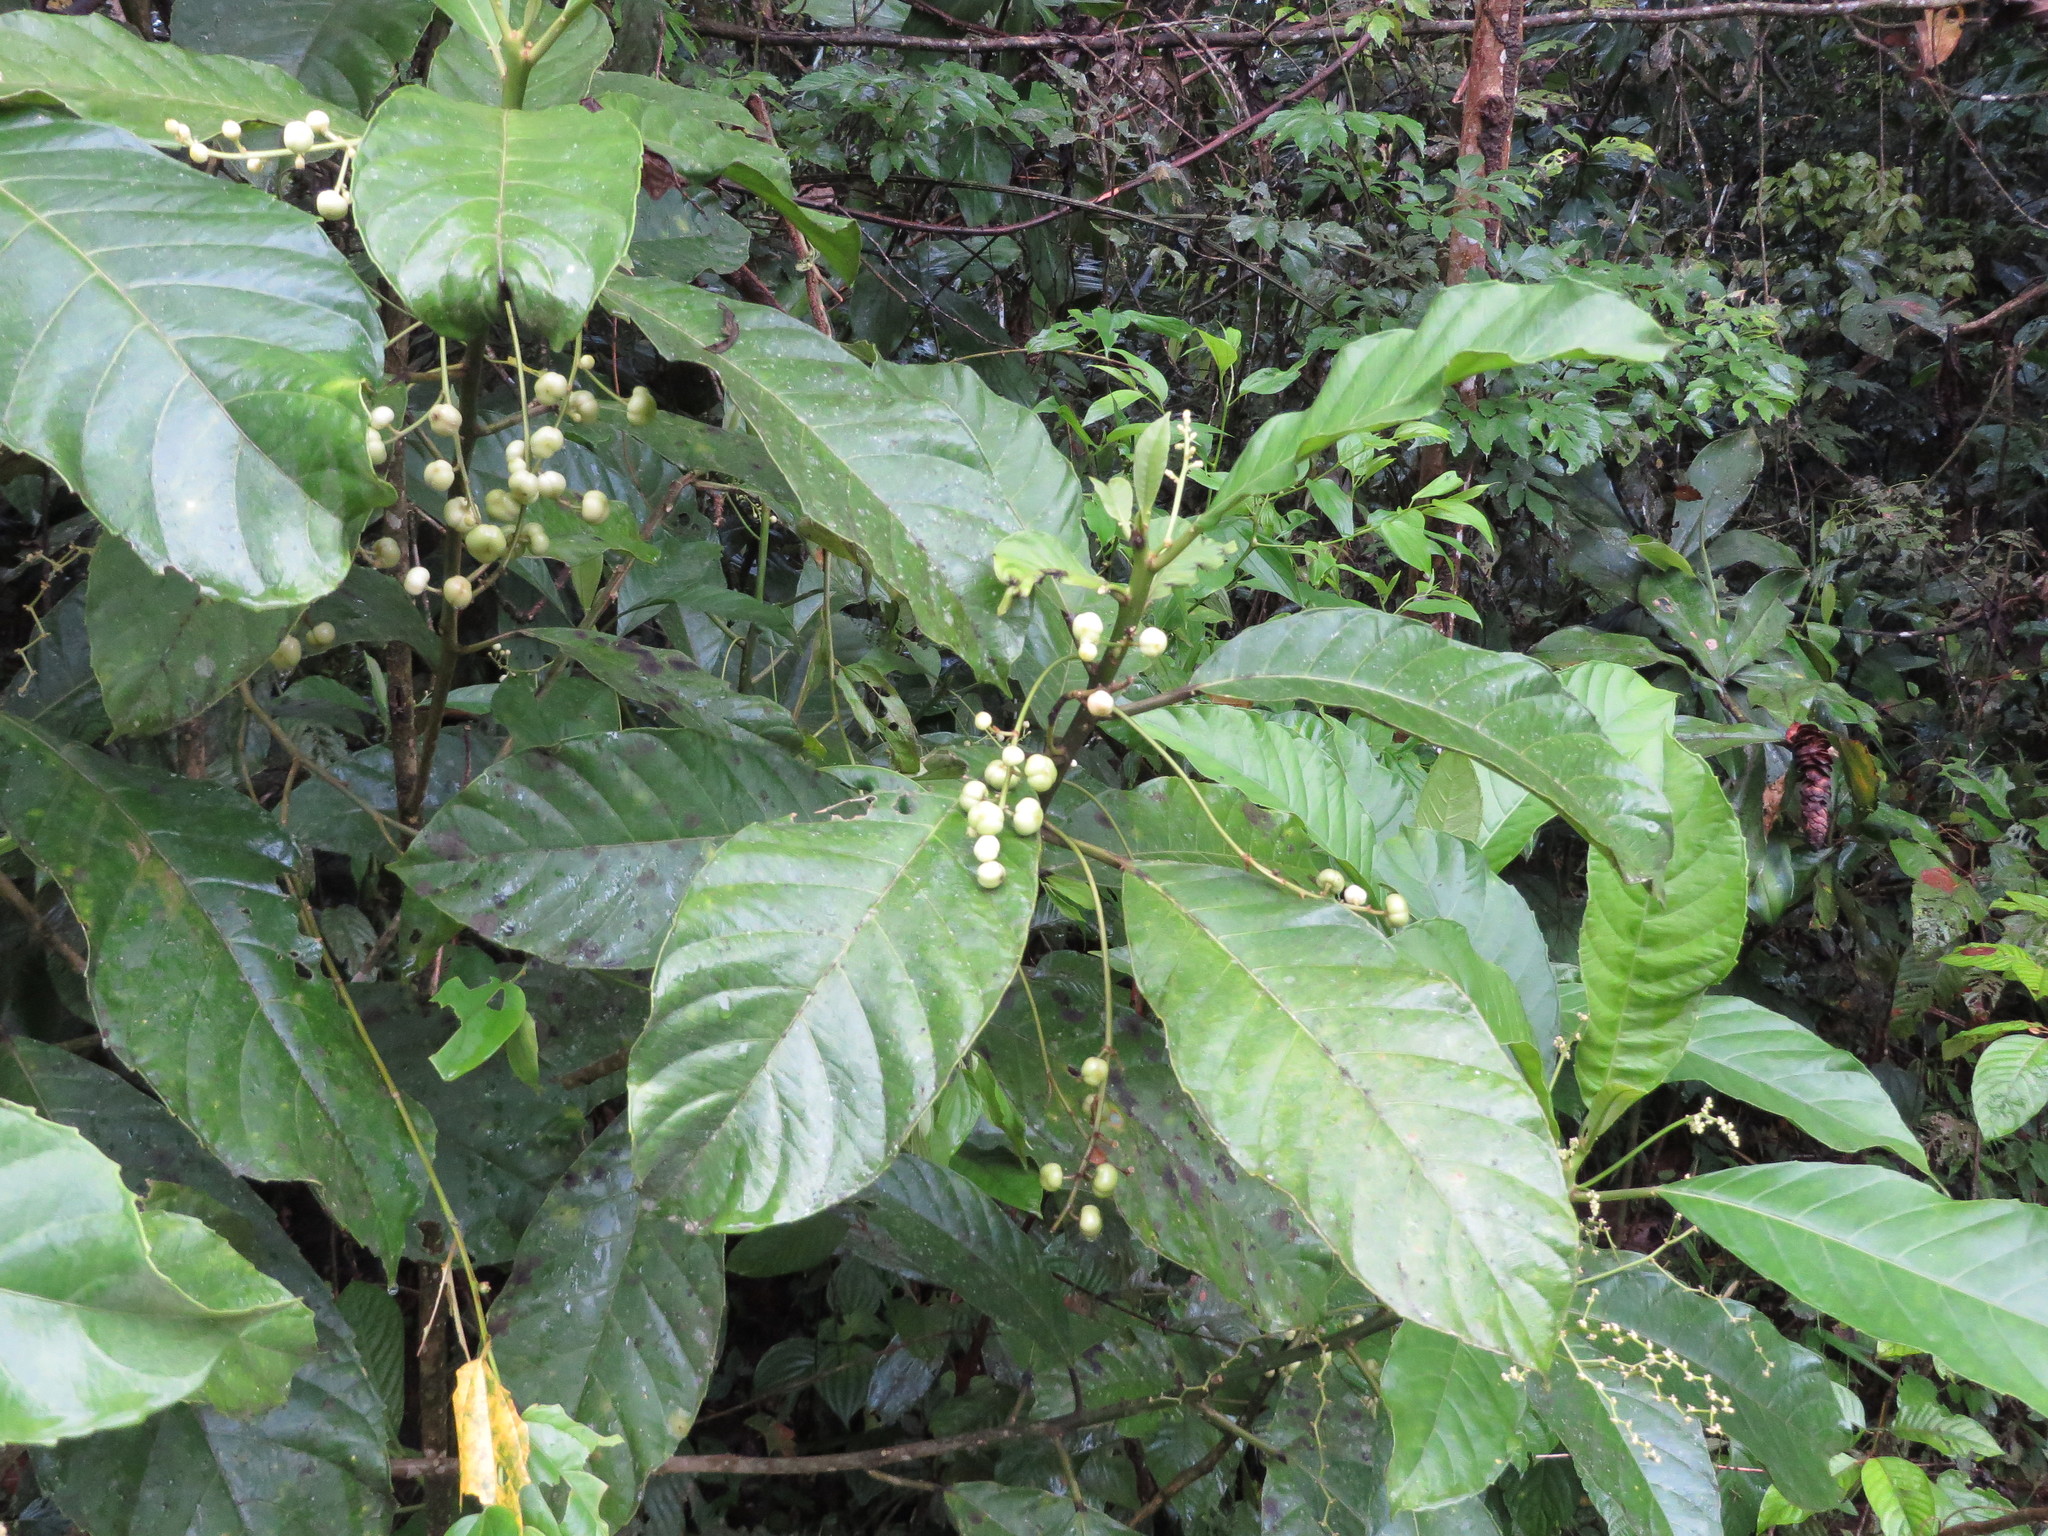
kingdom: Plantae
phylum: Tracheophyta
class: Magnoliopsida
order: Malpighiales
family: Euphorbiaceae
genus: Pausandra
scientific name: Pausandra trianae
